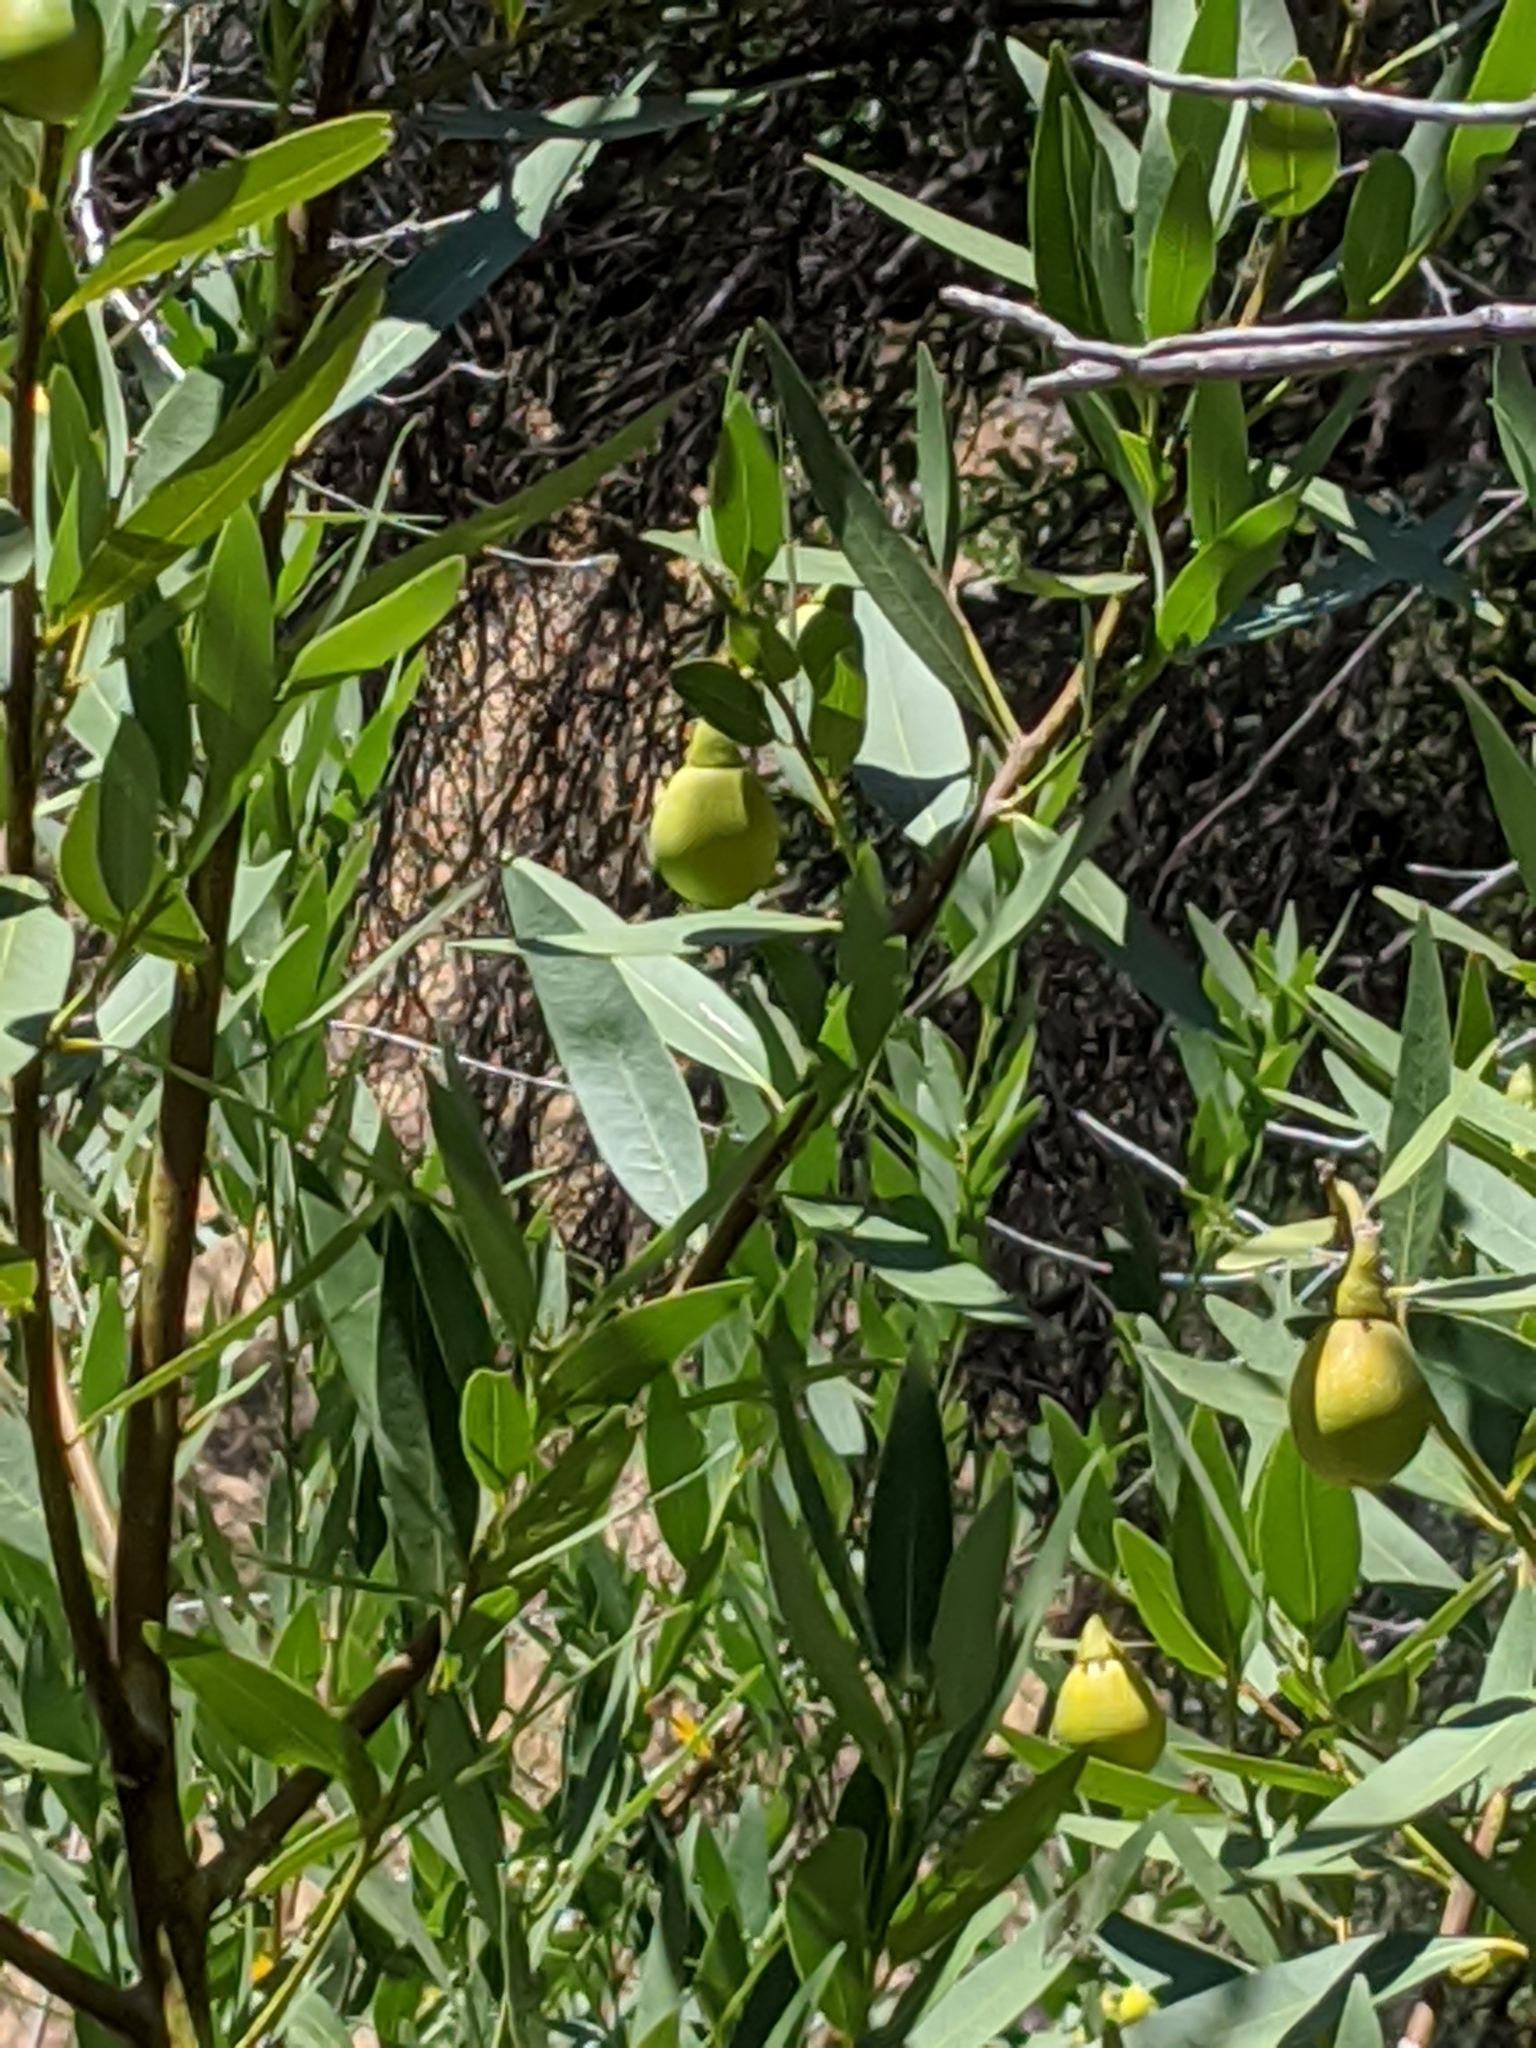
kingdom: Plantae
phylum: Tracheophyta
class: Magnoliopsida
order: Laurales
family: Lauraceae
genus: Umbellularia
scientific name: Umbellularia californica
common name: California bay
